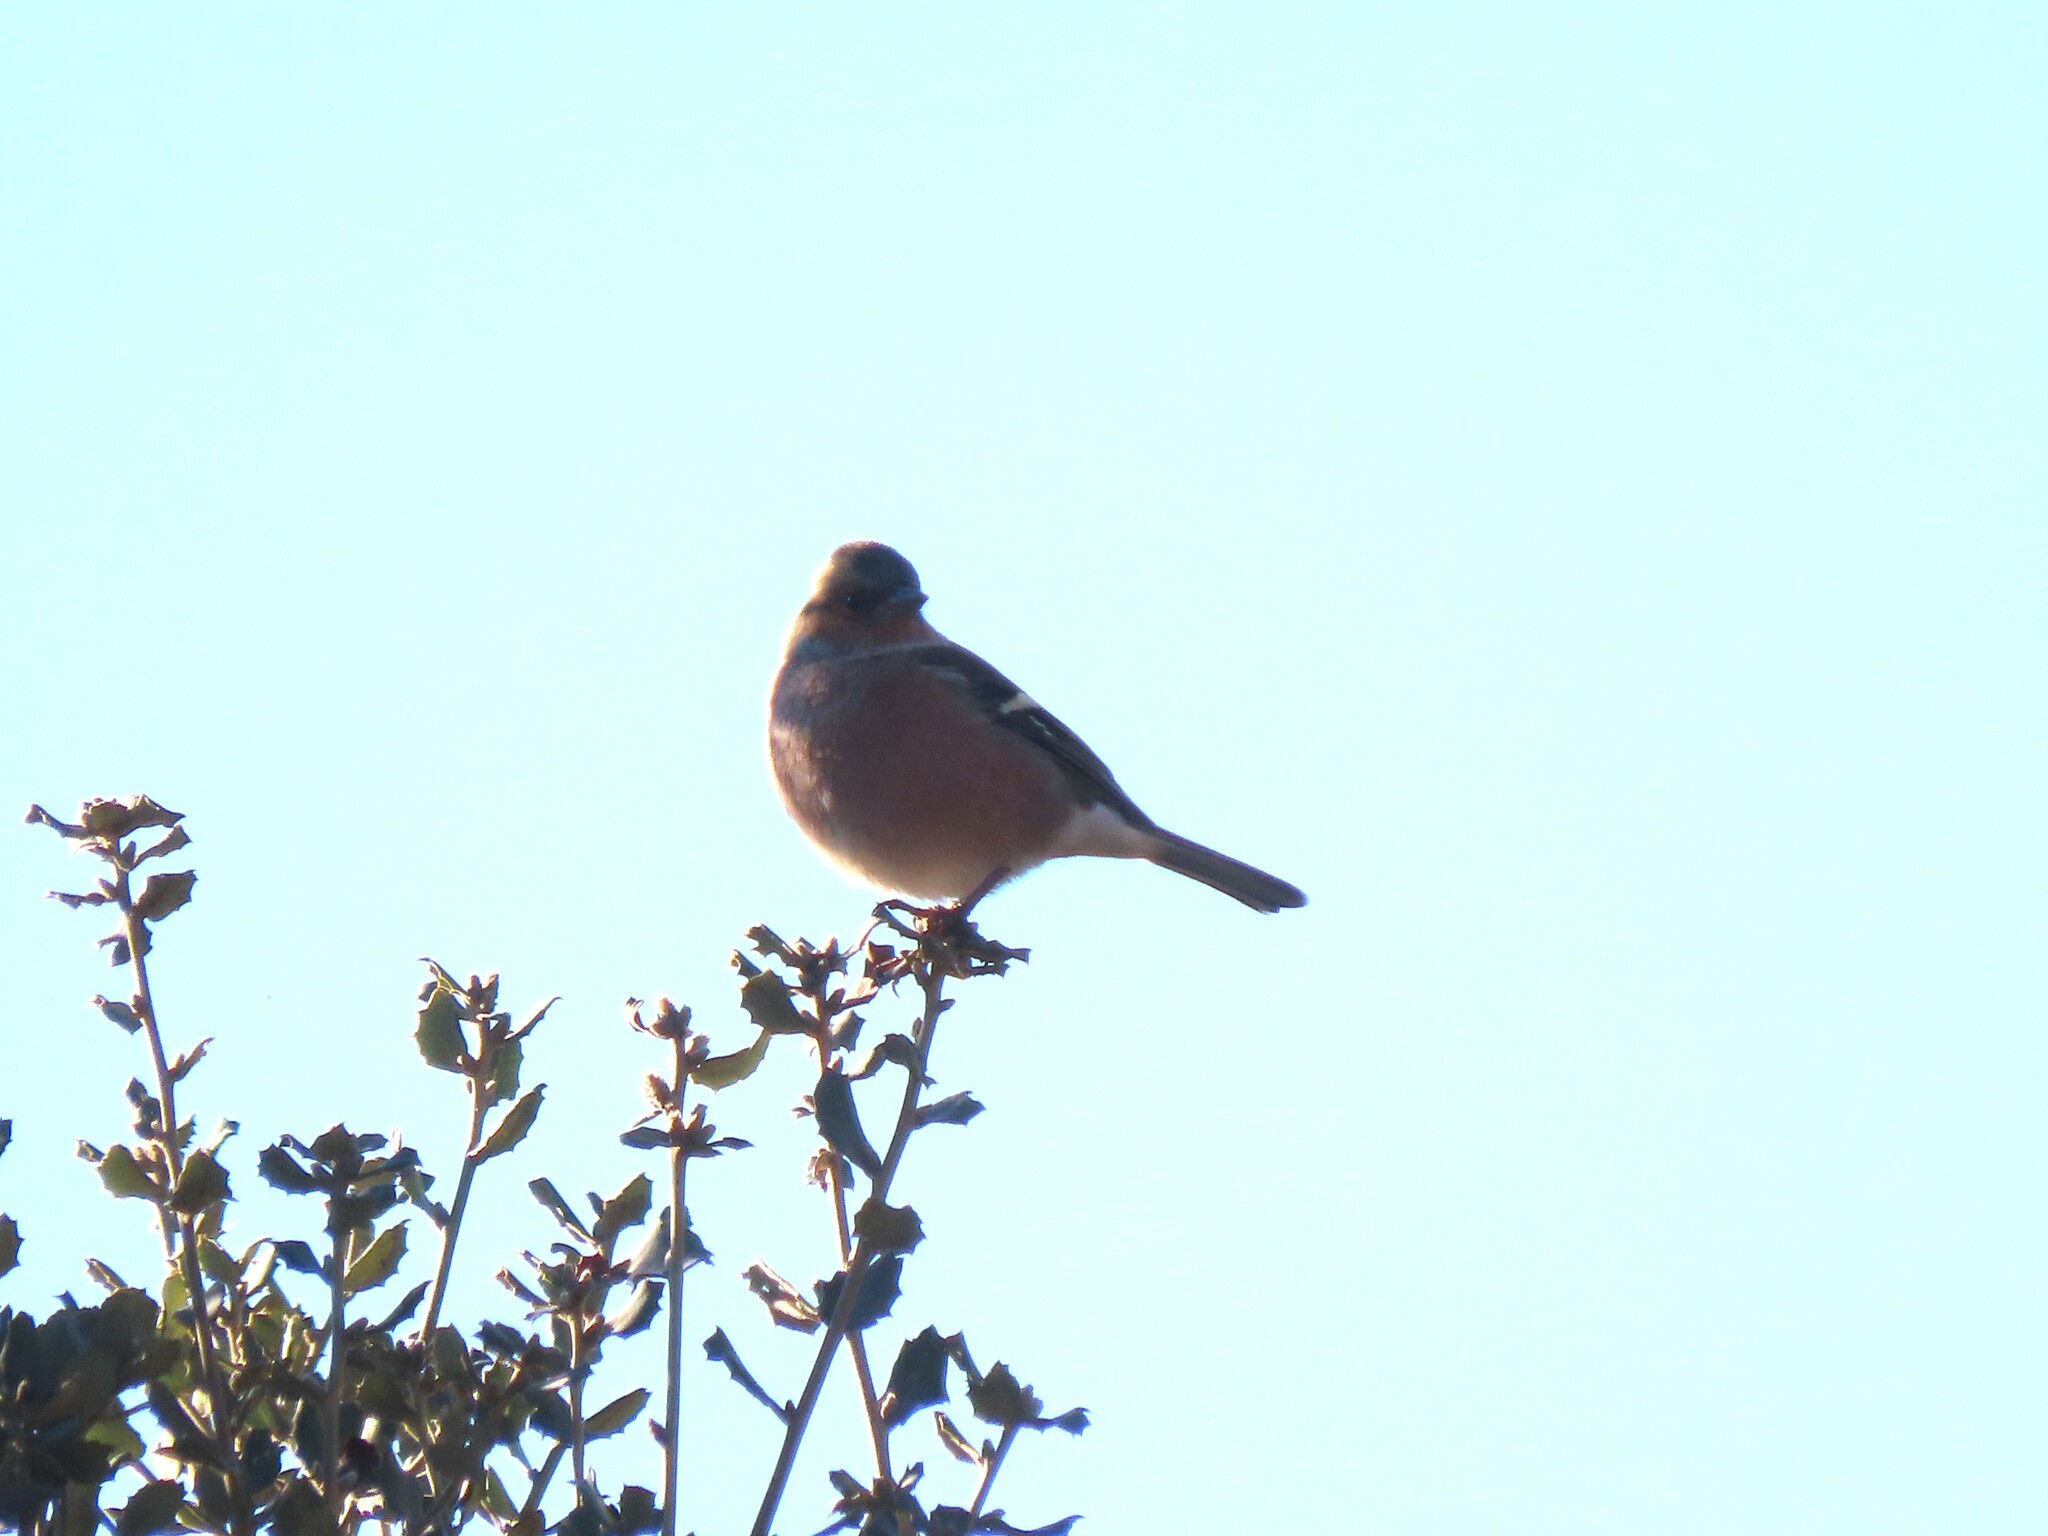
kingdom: Animalia
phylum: Chordata
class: Aves
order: Passeriformes
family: Fringillidae
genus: Fringilla
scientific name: Fringilla coelebs
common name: Common chaffinch
